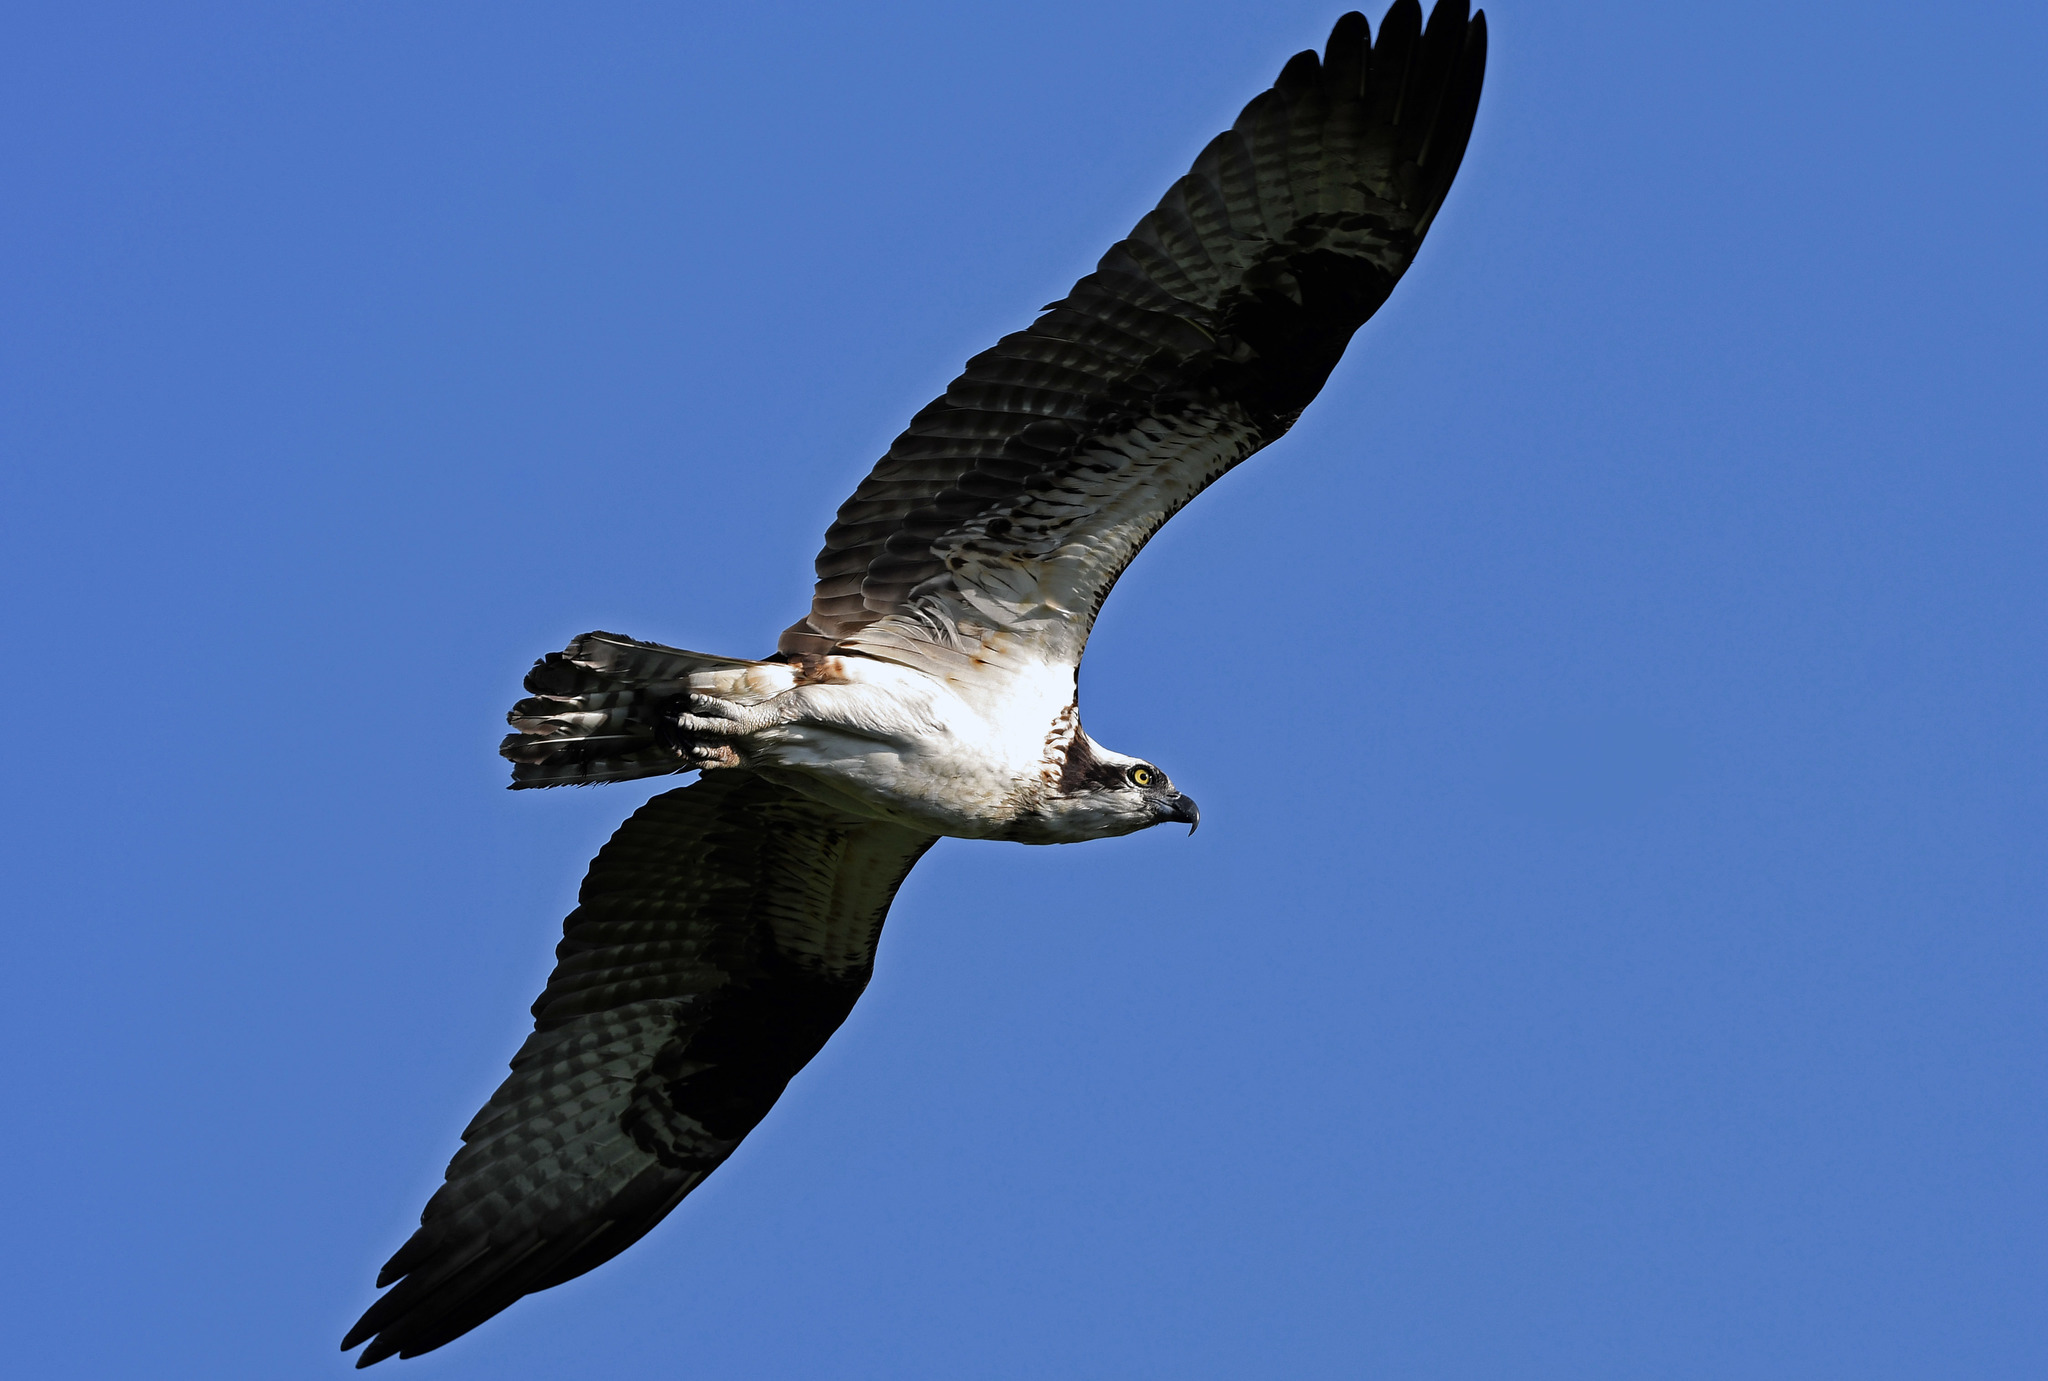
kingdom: Animalia
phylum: Chordata
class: Aves
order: Accipitriformes
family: Pandionidae
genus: Pandion
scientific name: Pandion haliaetus
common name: Osprey
